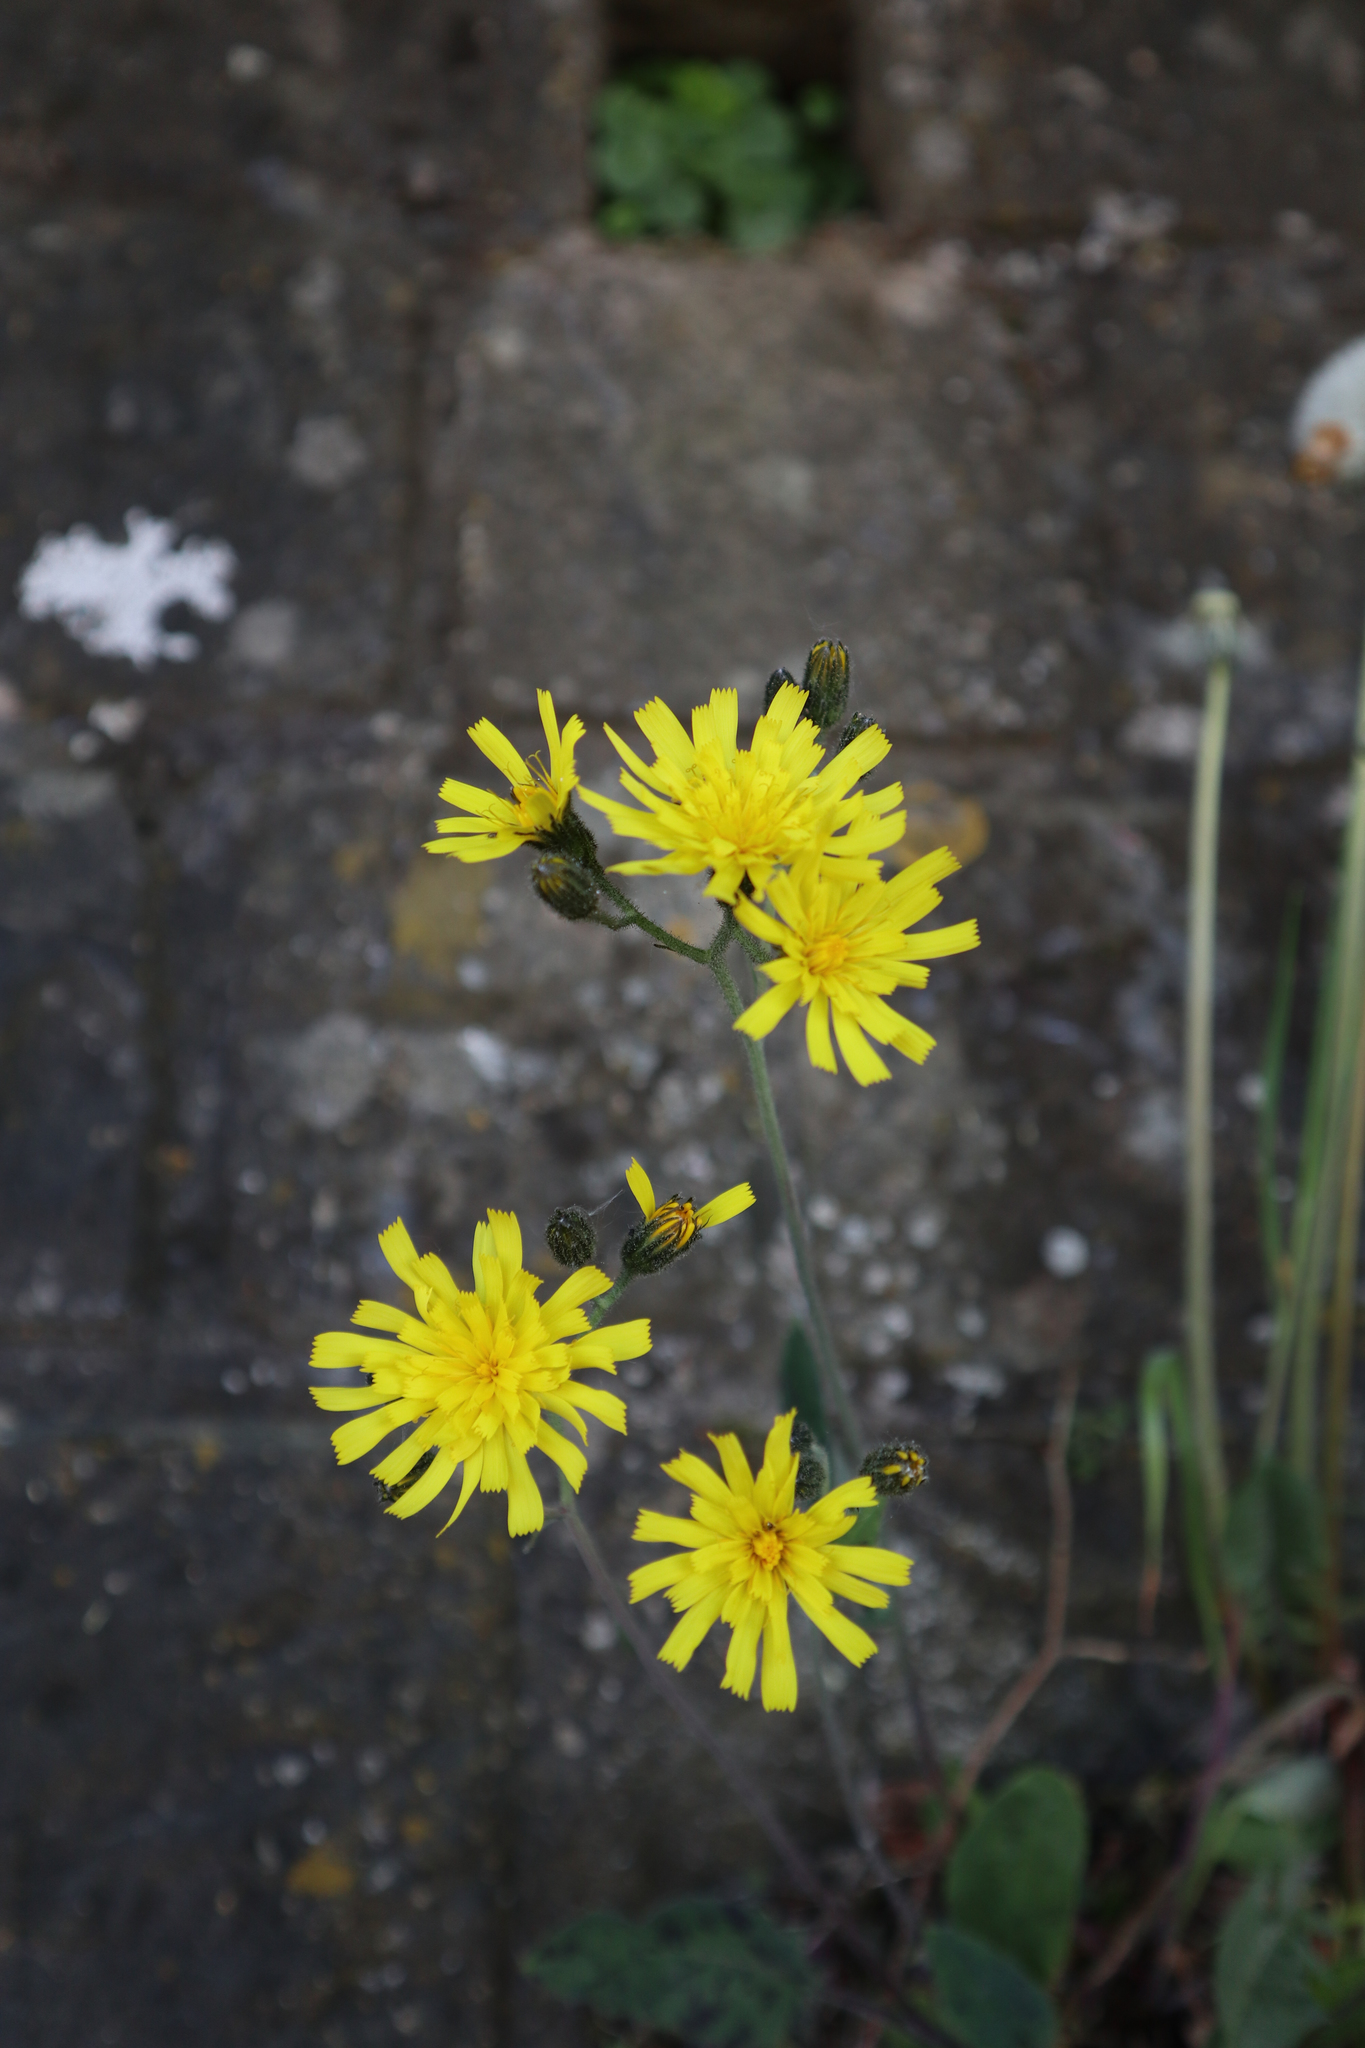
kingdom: Plantae
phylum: Tracheophyta
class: Magnoliopsida
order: Asterales
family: Asteraceae
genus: Hieracium
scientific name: Hieracium murorum
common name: Wall hawkweed
